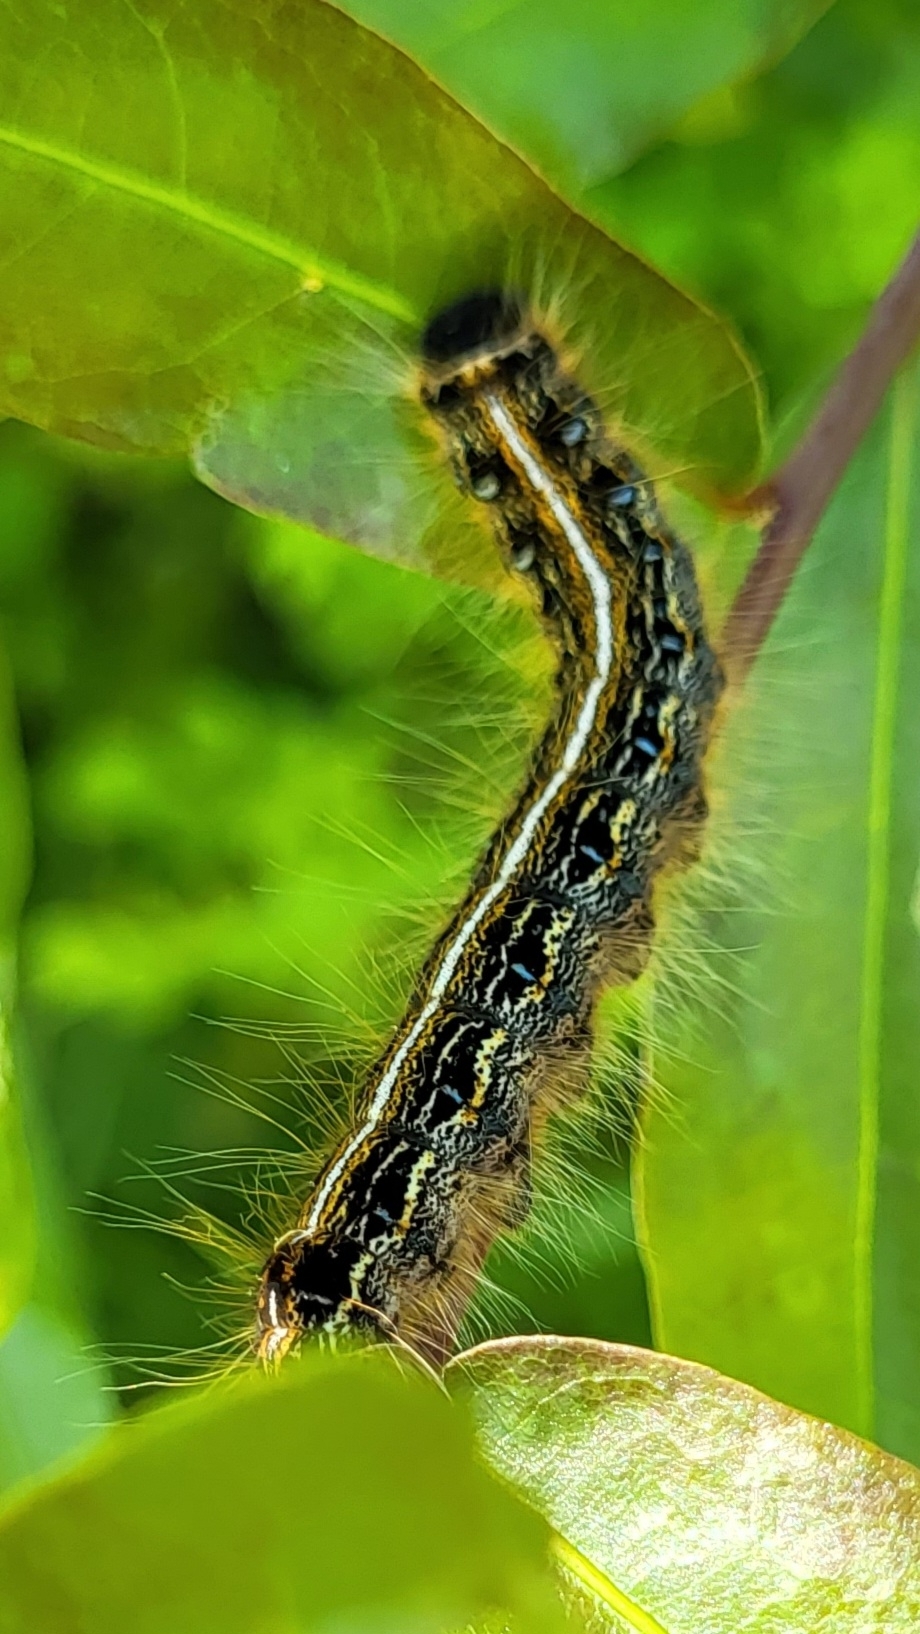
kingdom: Animalia
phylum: Arthropoda
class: Insecta
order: Lepidoptera
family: Lasiocampidae
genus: Malacosoma
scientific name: Malacosoma americana
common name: Eastern tent caterpillar moth
